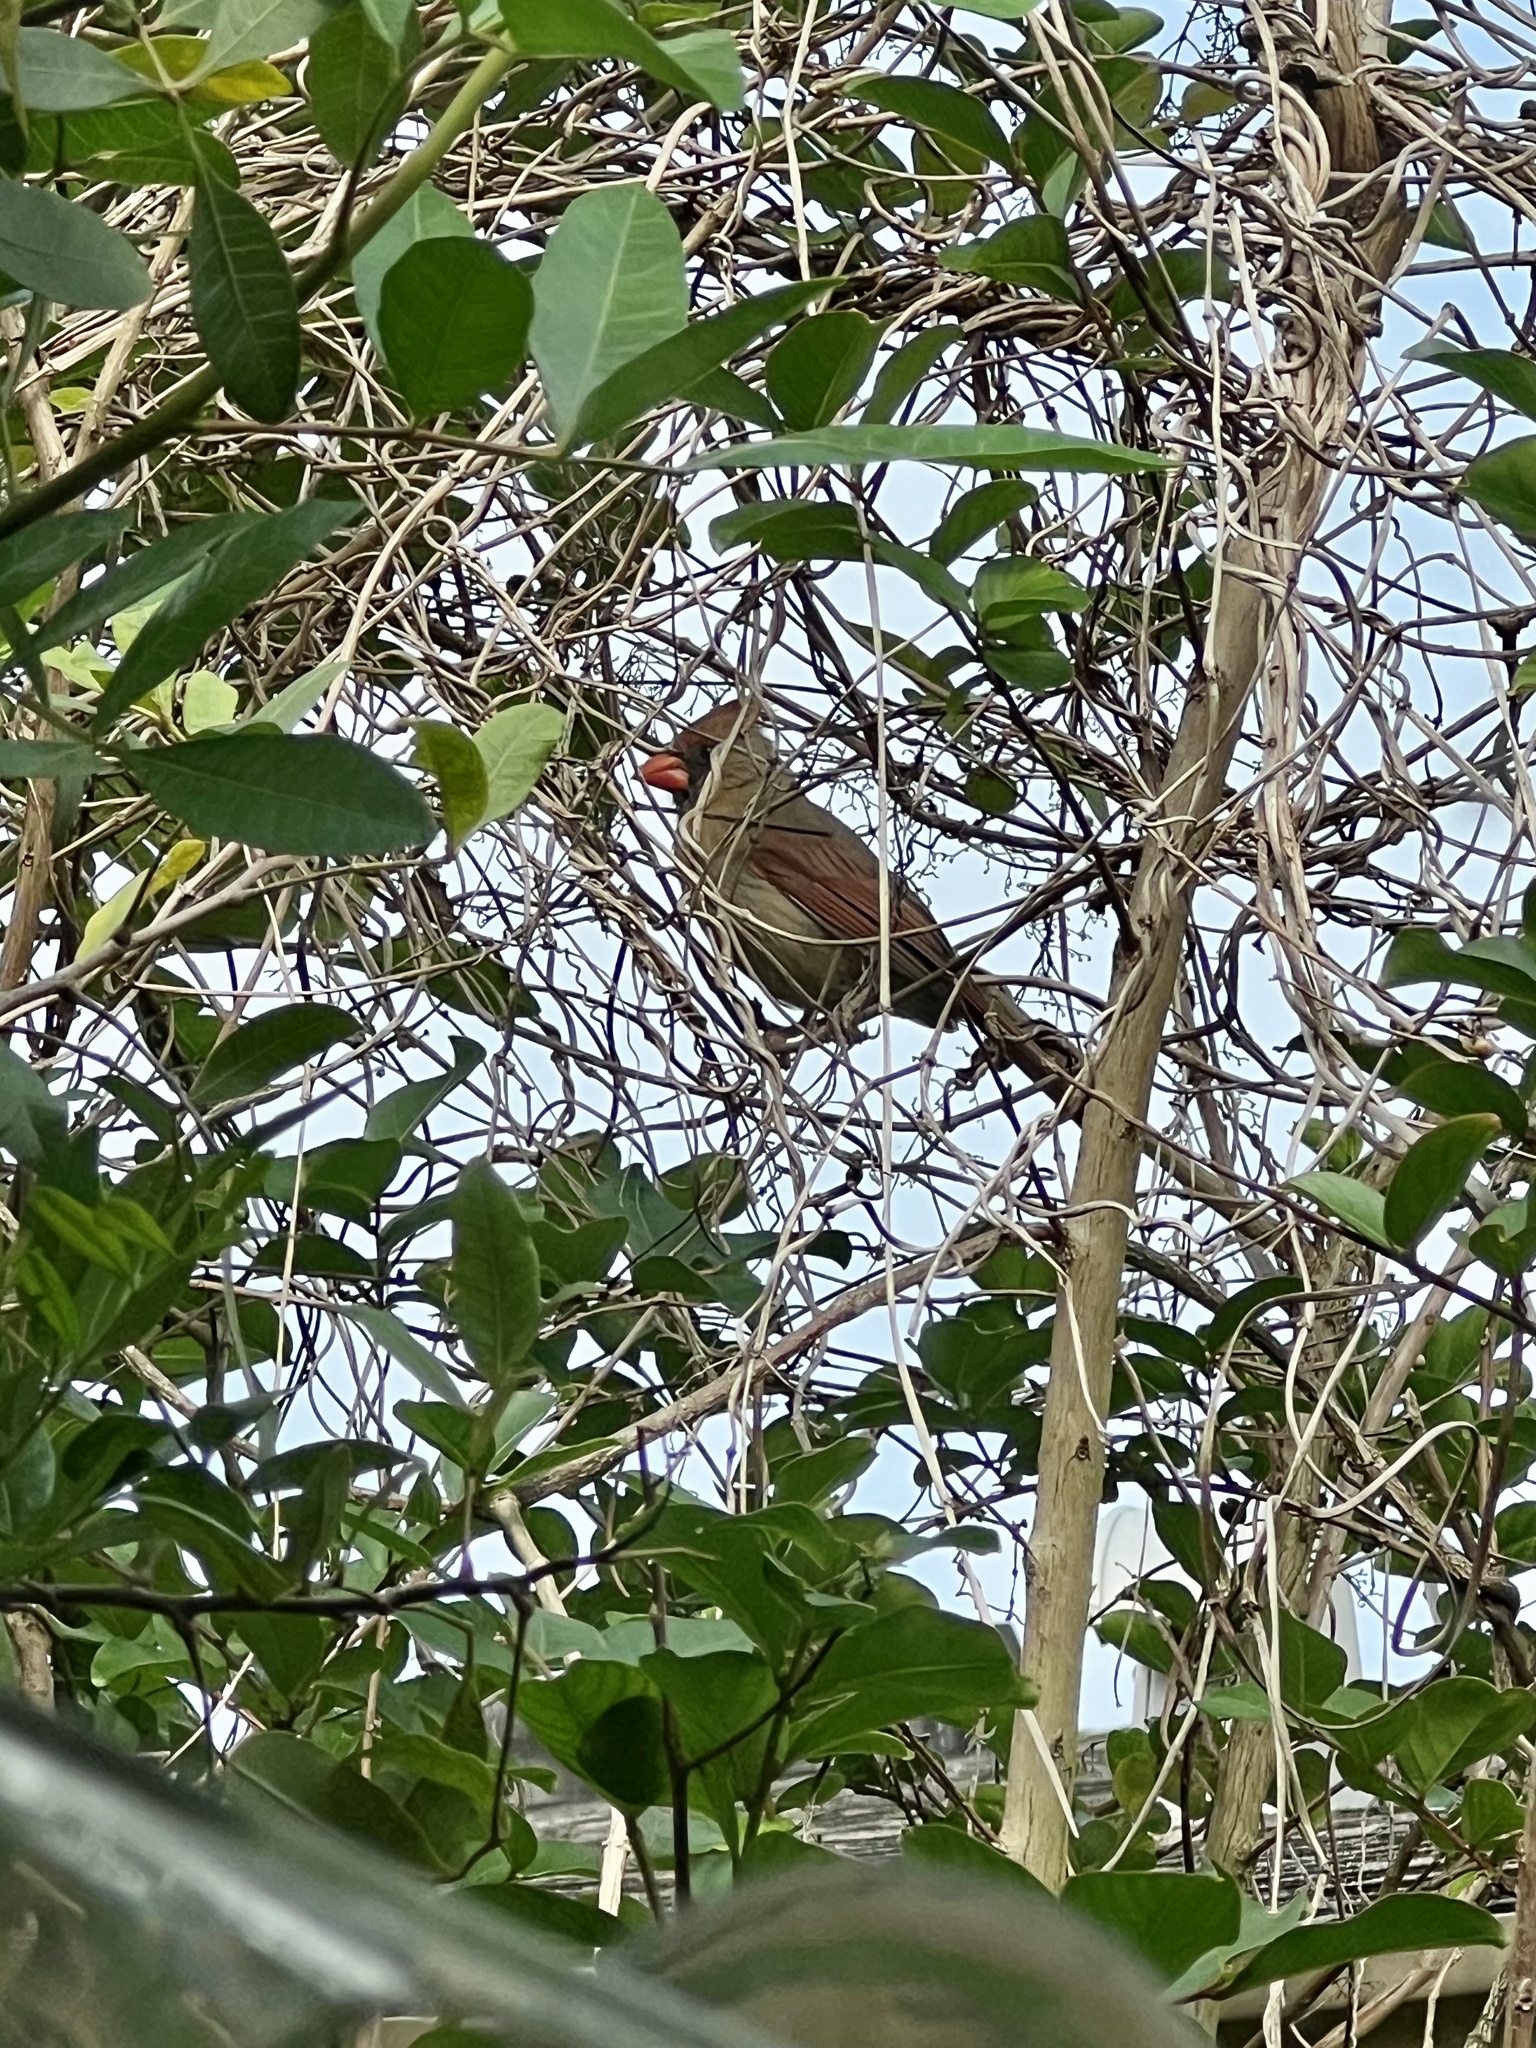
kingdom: Animalia
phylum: Chordata
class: Aves
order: Passeriformes
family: Cardinalidae
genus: Cardinalis
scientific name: Cardinalis cardinalis
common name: Northern cardinal
